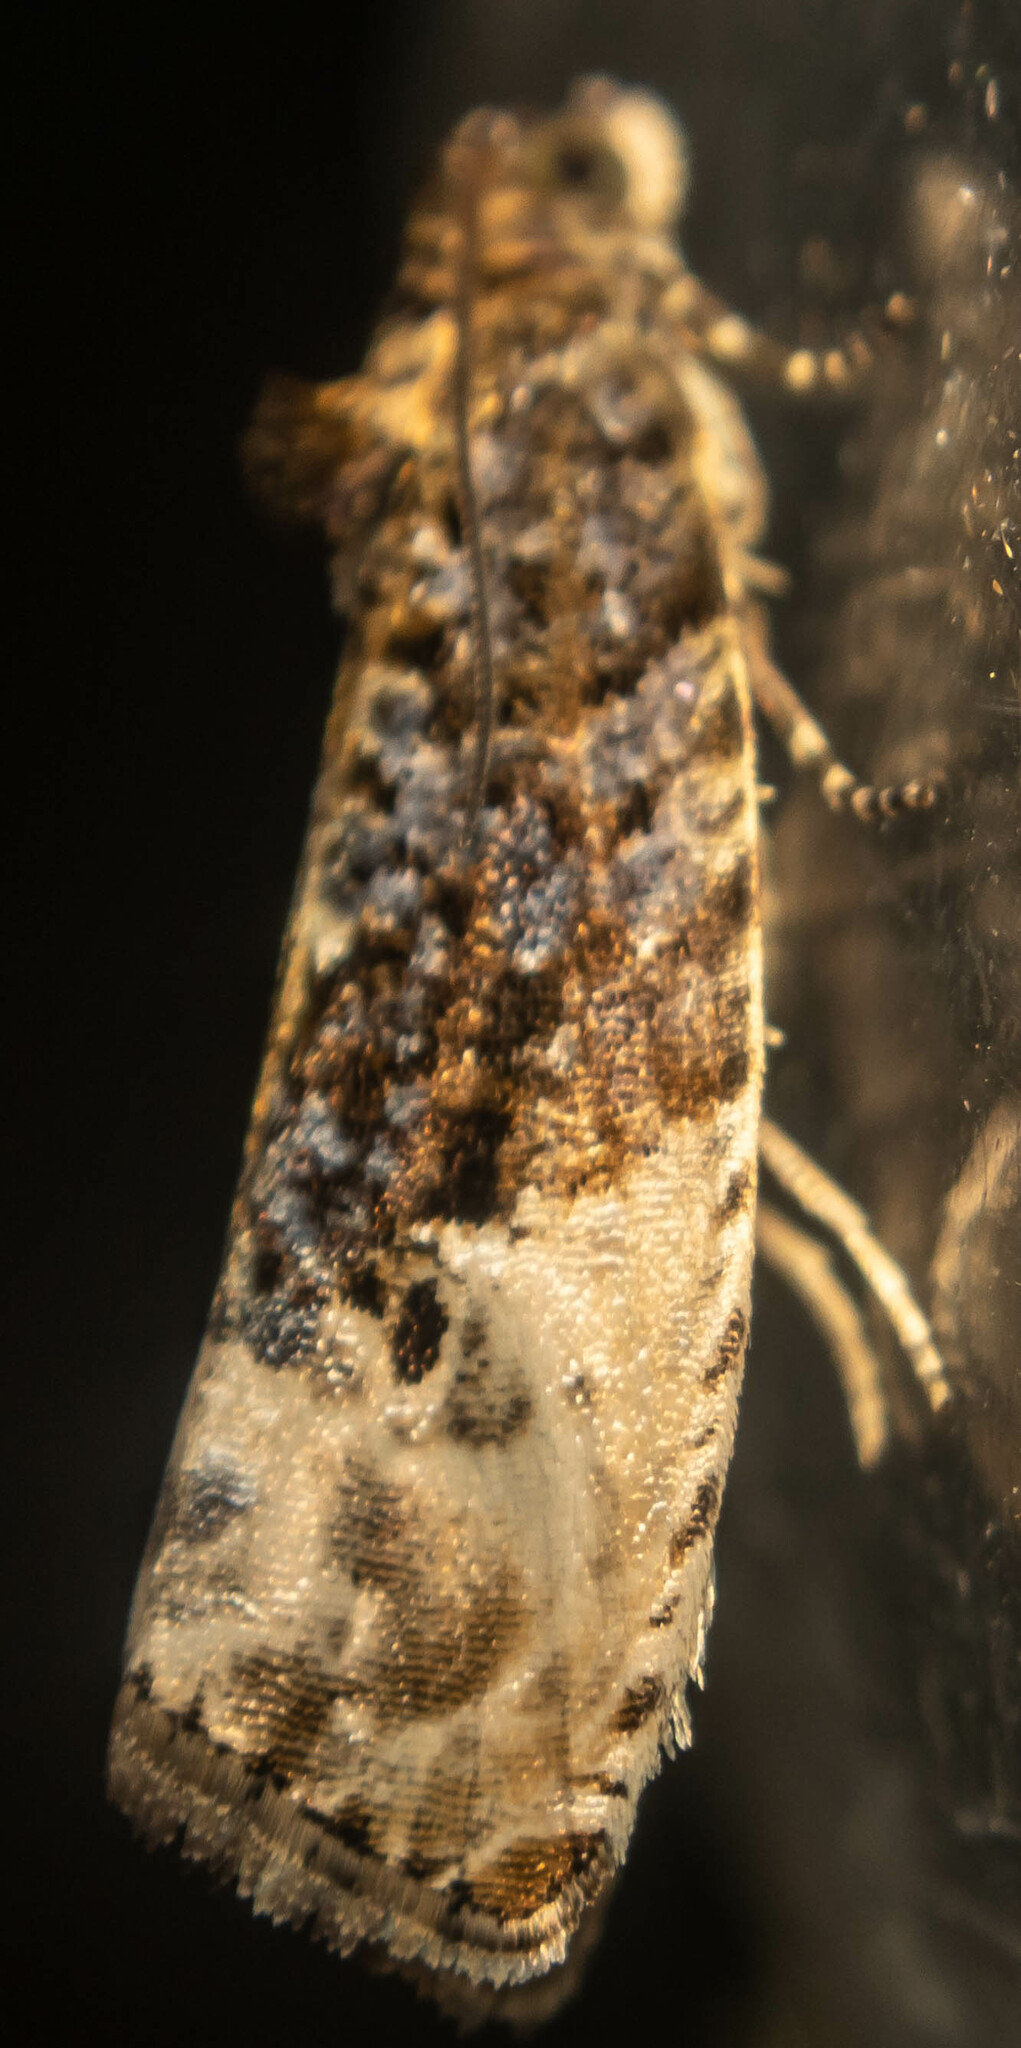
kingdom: Animalia
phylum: Arthropoda
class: Insecta
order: Lepidoptera
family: Tortricidae
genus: Hedya
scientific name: Hedya nubiferana
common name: Marbled orchard tortrix
